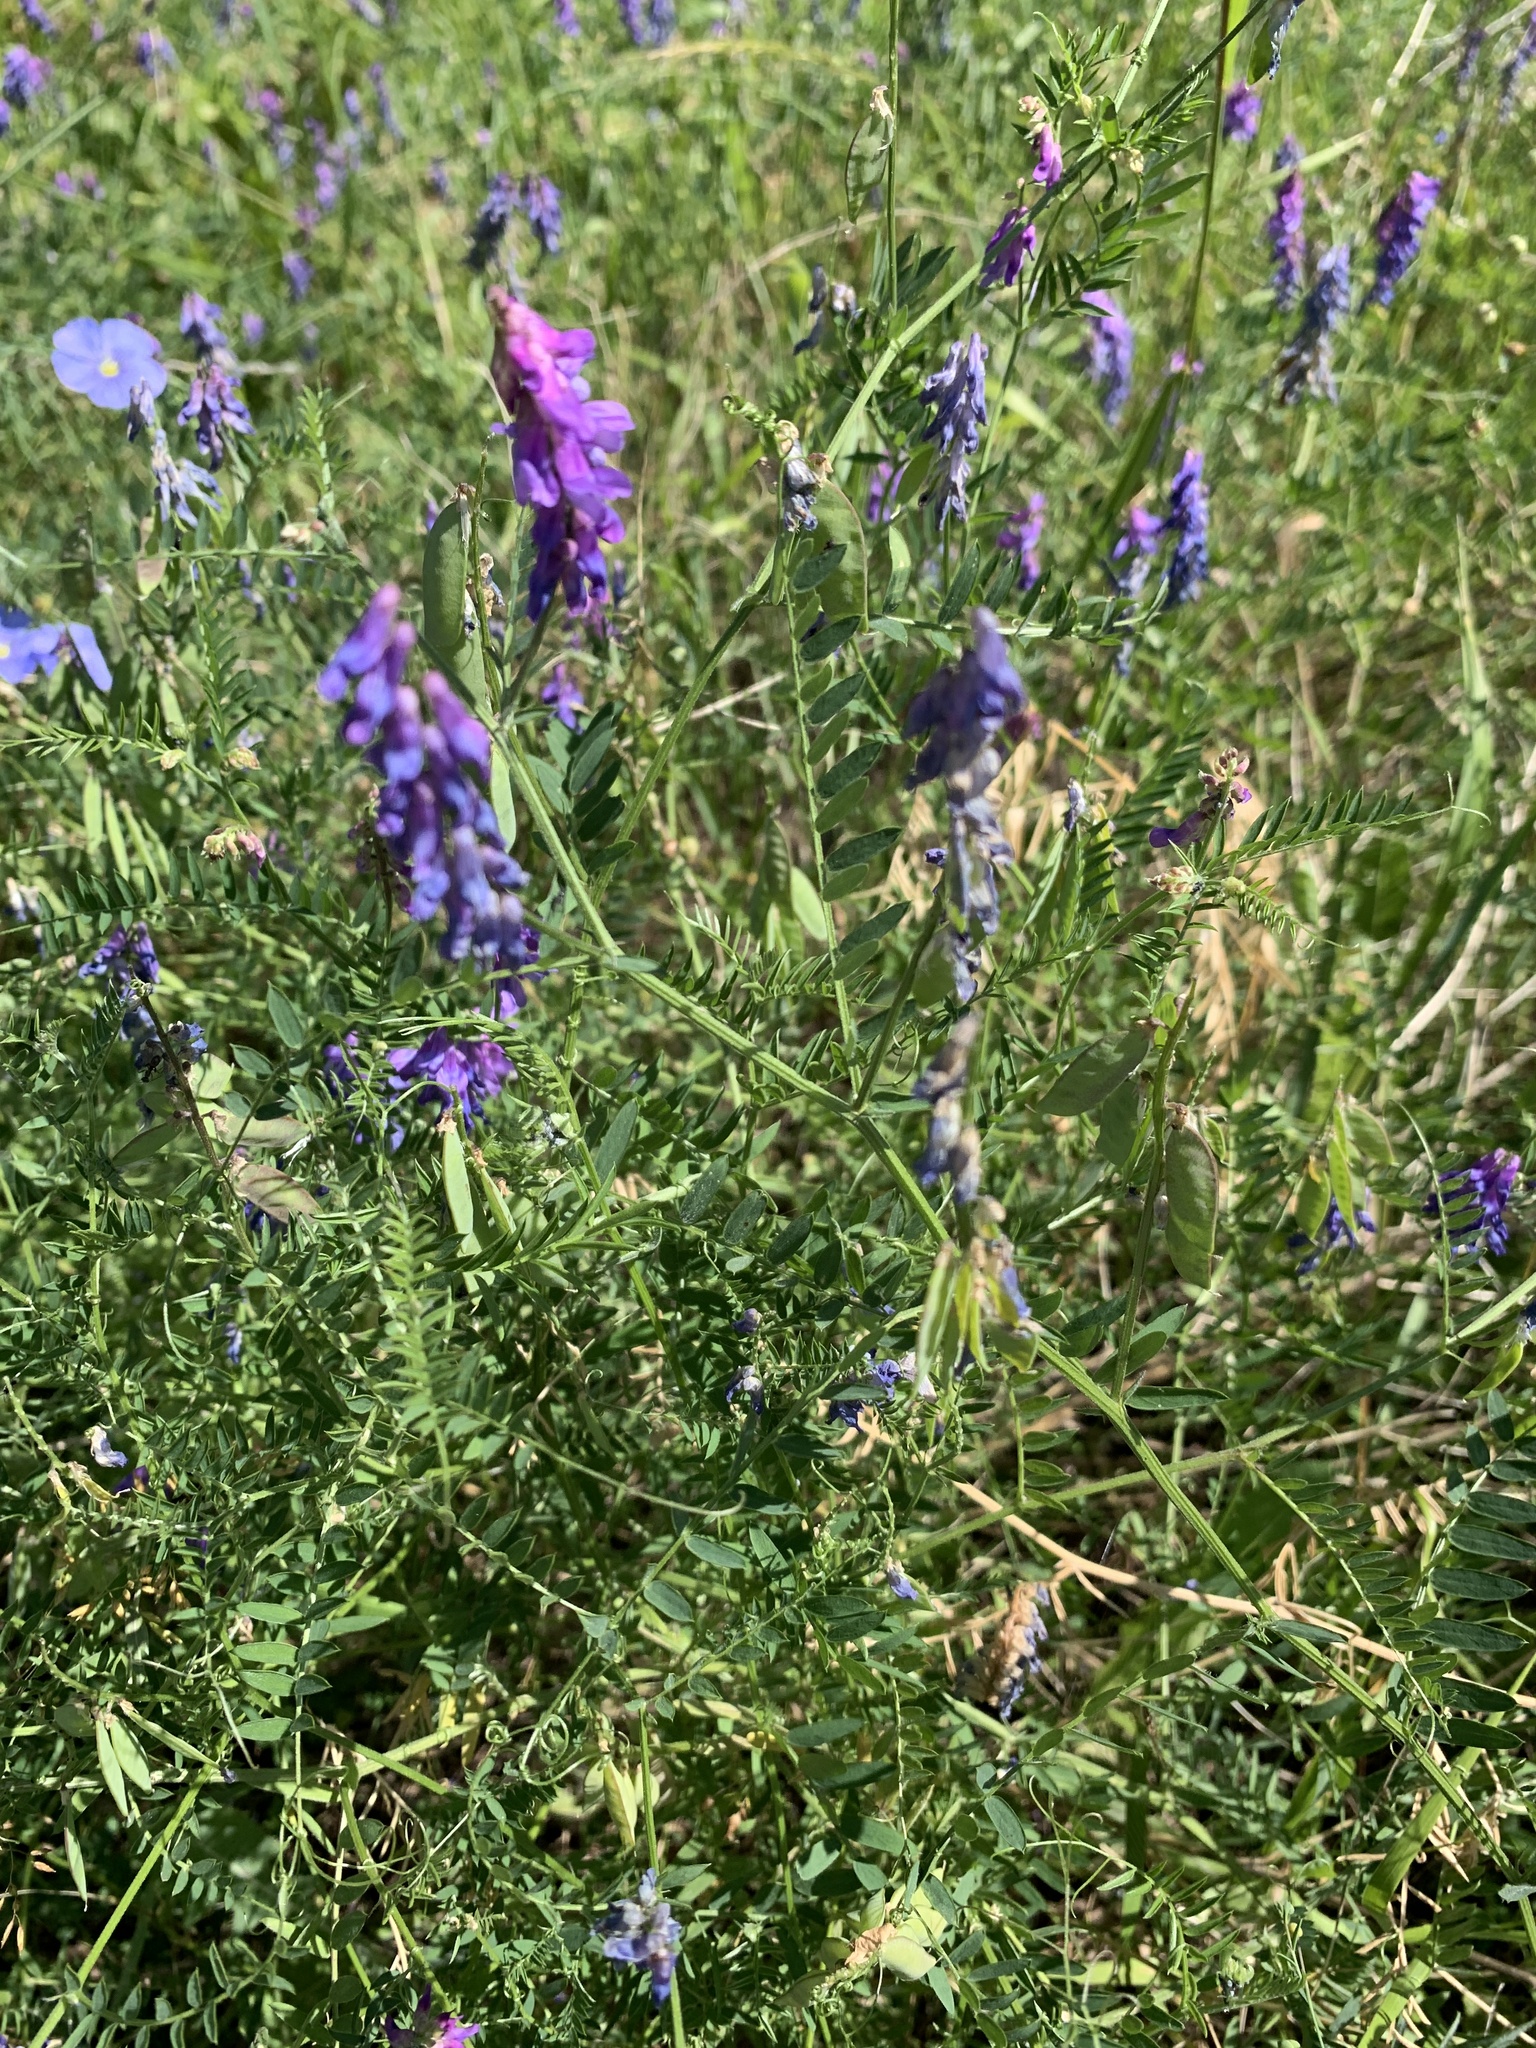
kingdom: Plantae
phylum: Tracheophyta
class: Magnoliopsida
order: Fabales
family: Fabaceae
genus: Vicia
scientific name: Vicia cracca
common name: Bird vetch
